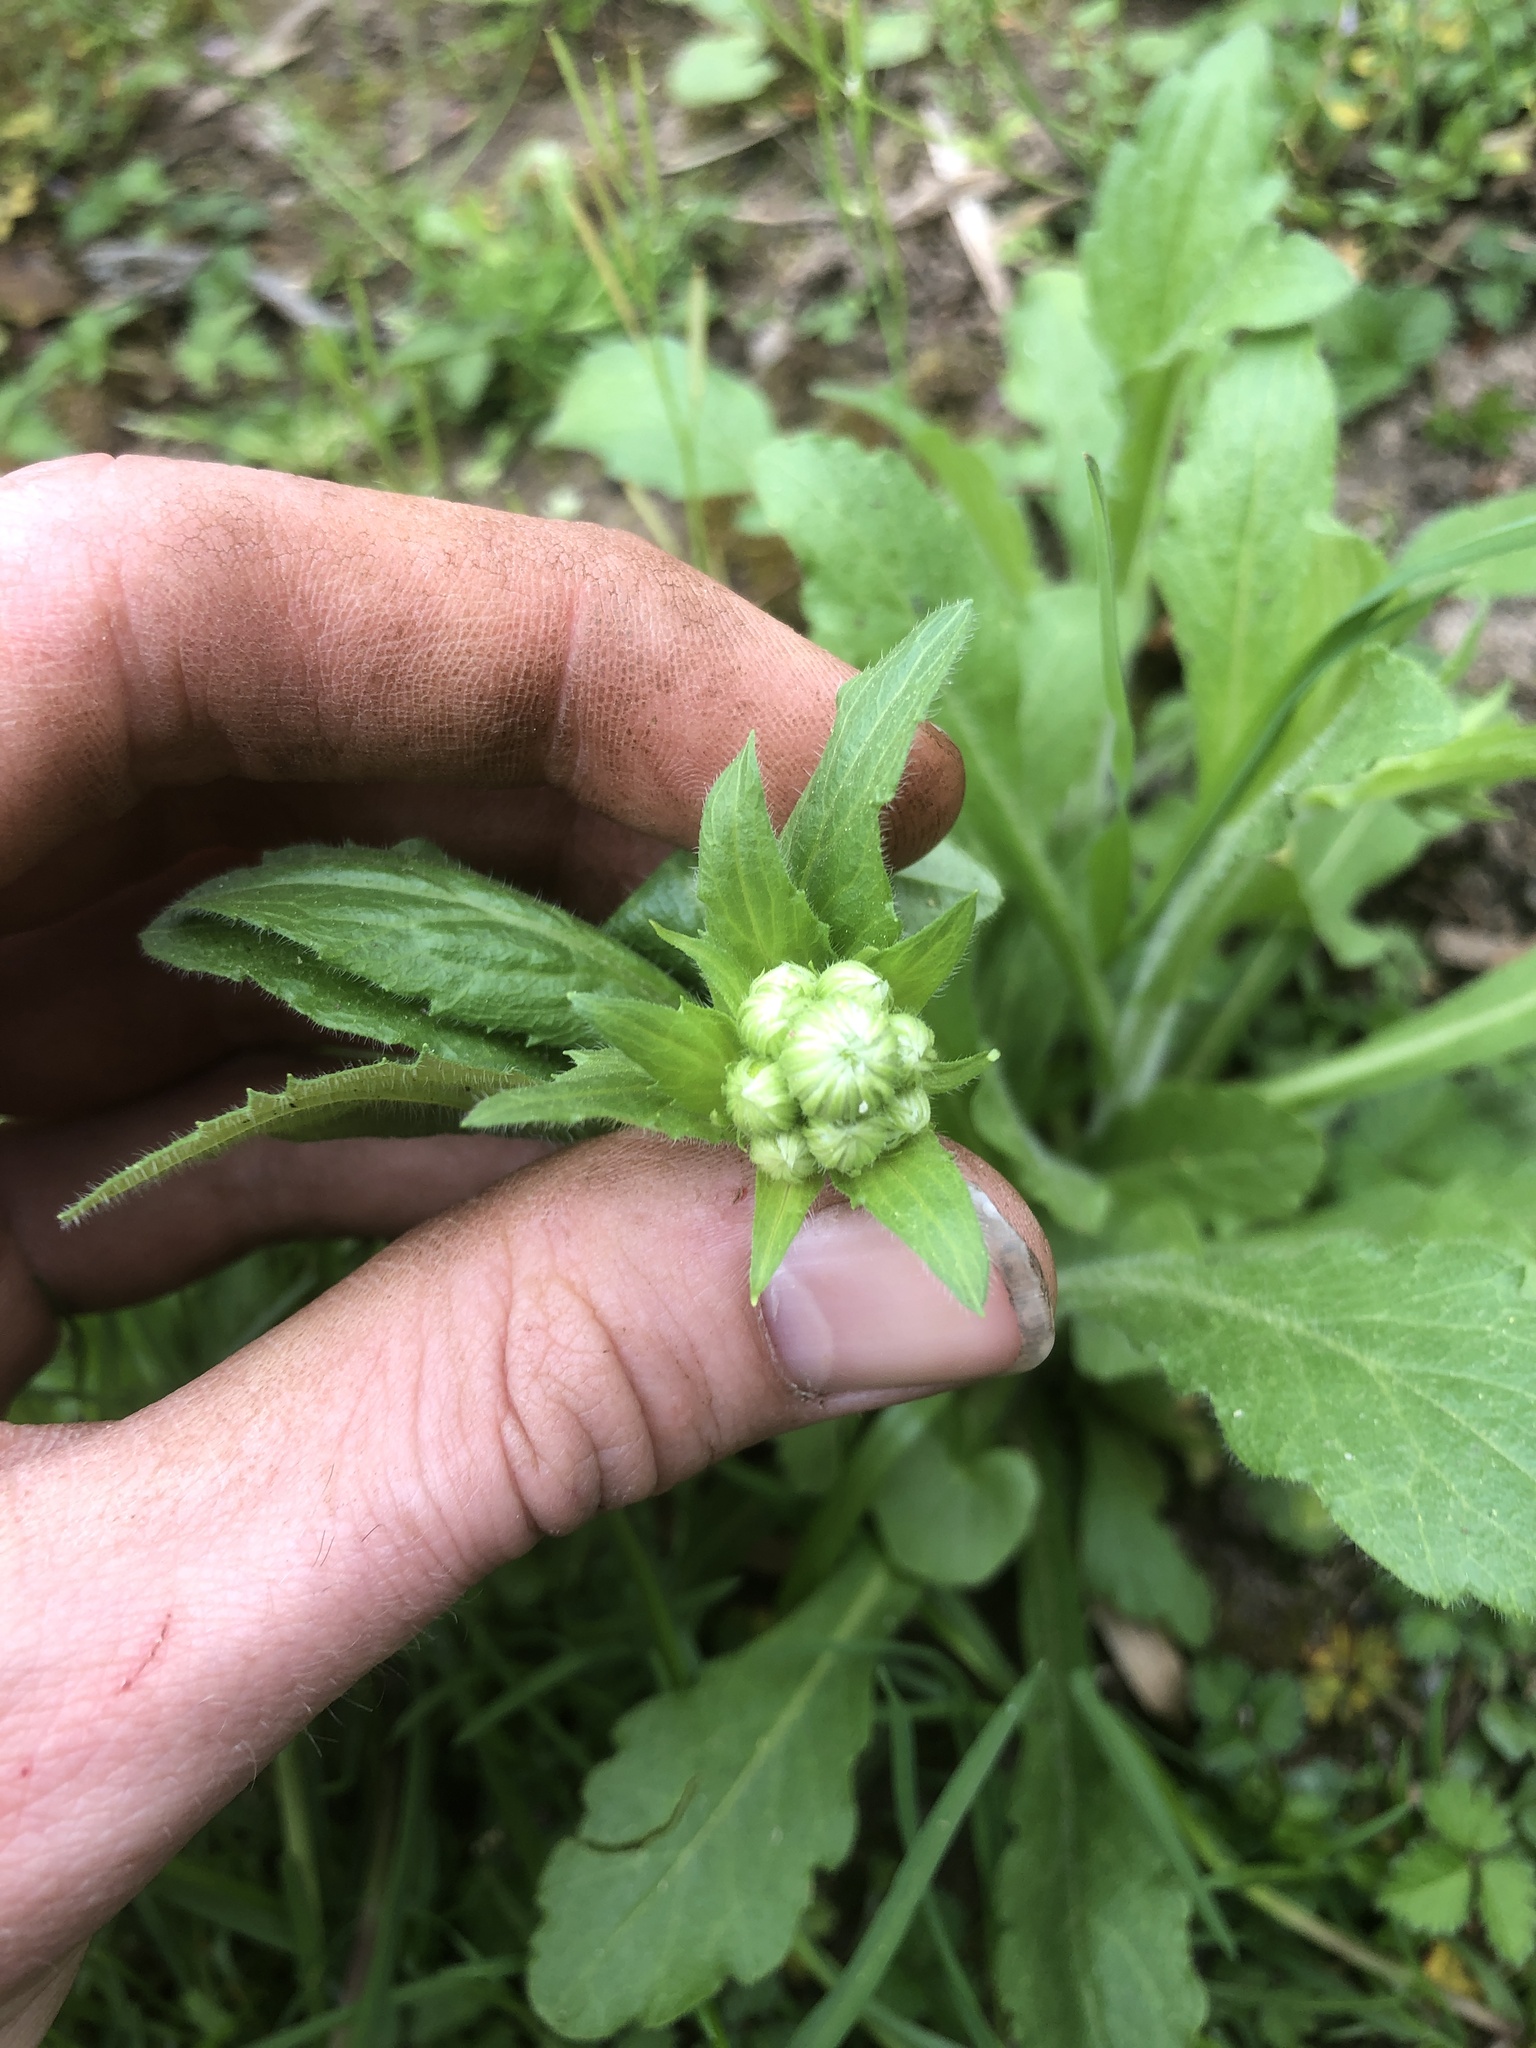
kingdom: Plantae
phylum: Tracheophyta
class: Magnoliopsida
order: Asterales
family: Asteraceae
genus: Erigeron
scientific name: Erigeron philadelphicus
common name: Robin's-plantain
